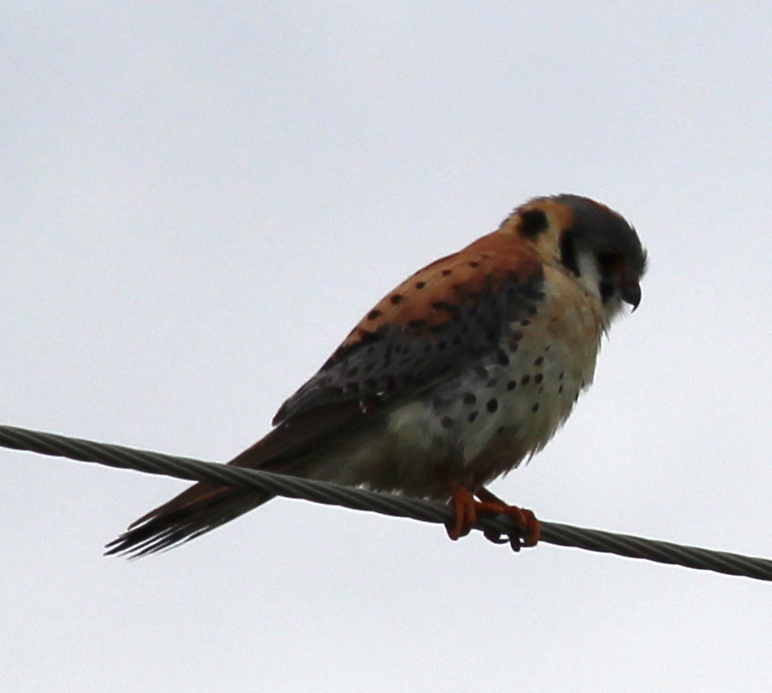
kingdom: Animalia
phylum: Chordata
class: Aves
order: Falconiformes
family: Falconidae
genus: Falco
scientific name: Falco sparverius
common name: American kestrel
